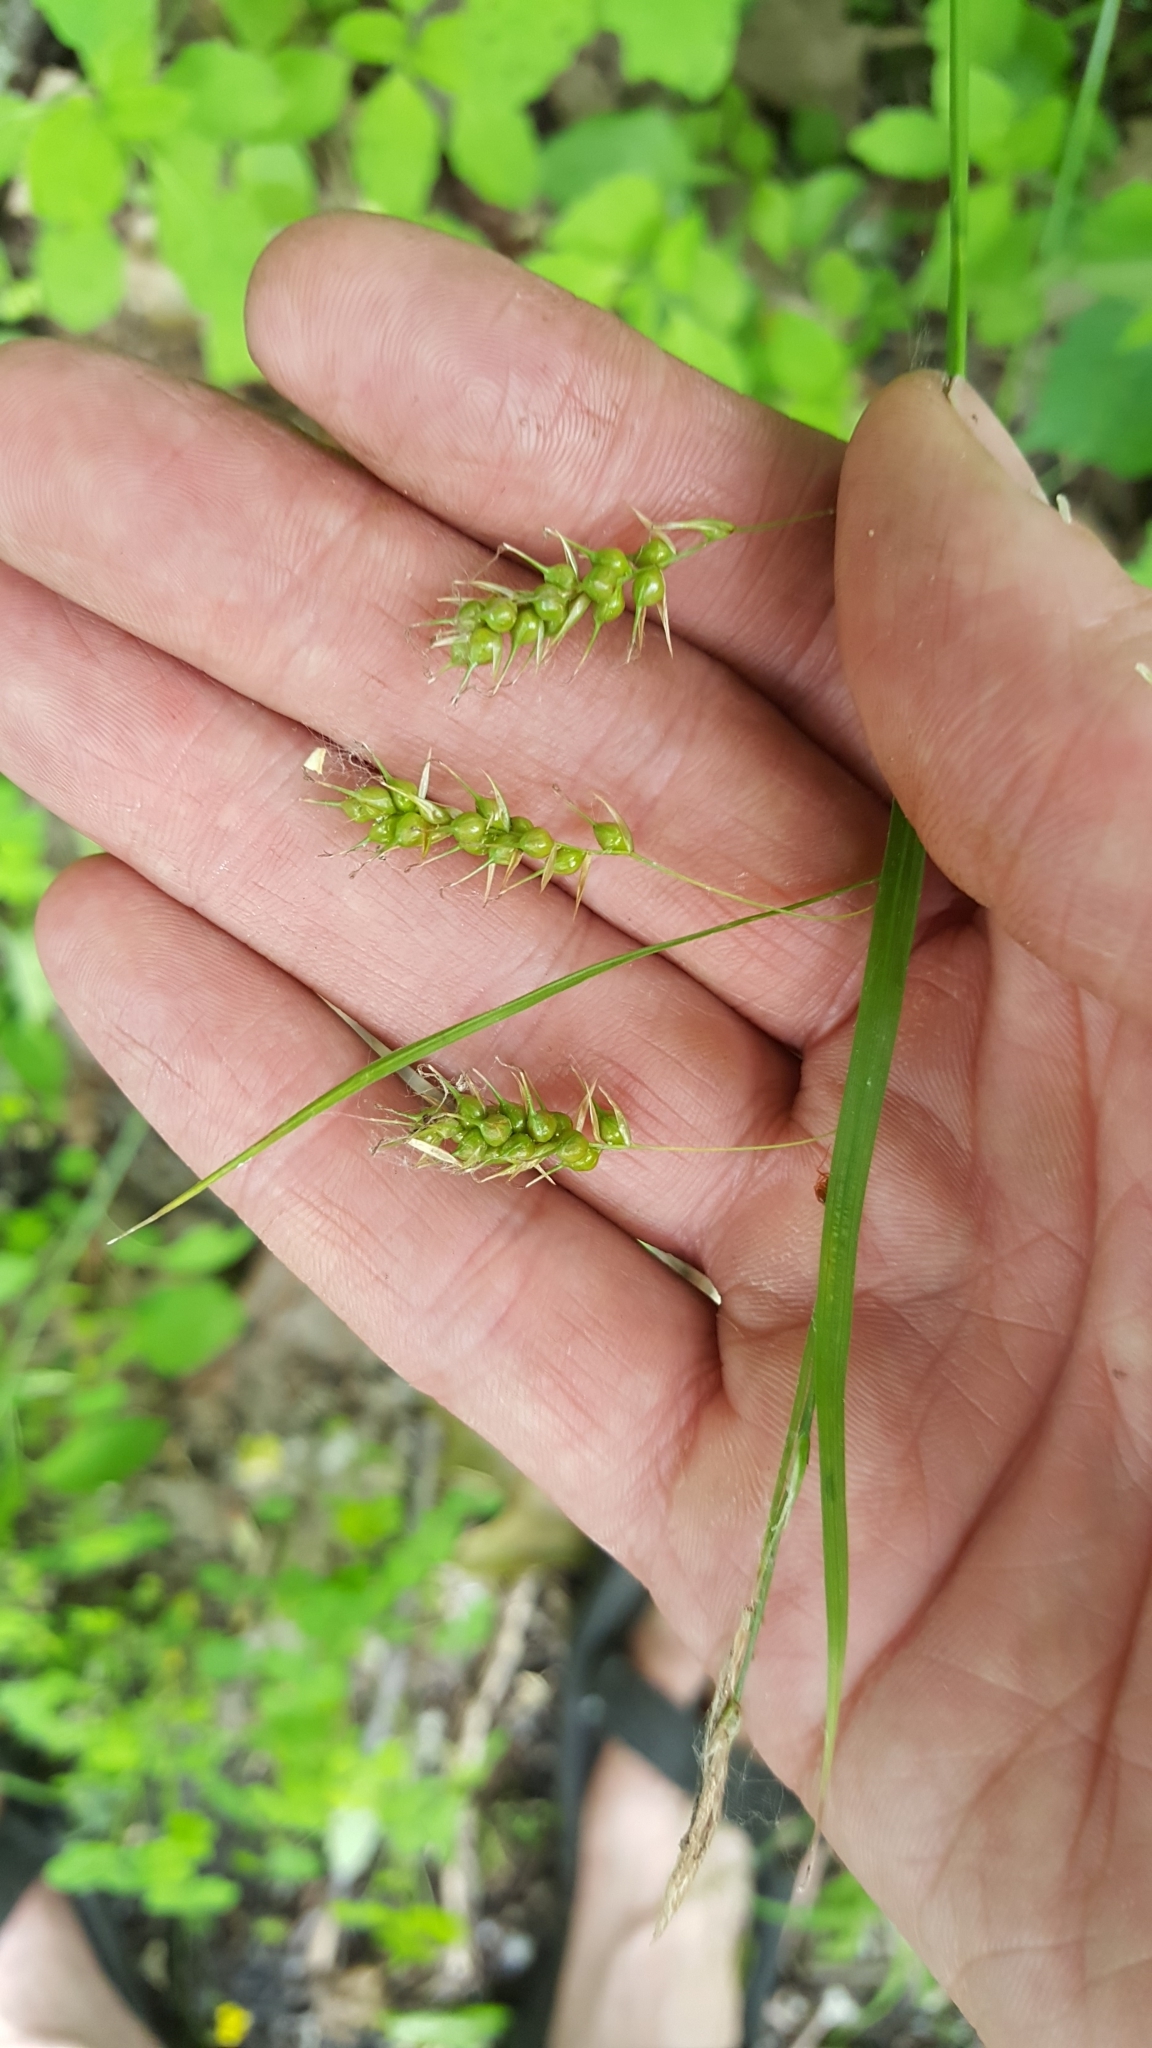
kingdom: Plantae
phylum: Tracheophyta
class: Liliopsida
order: Poales
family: Cyperaceae
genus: Carex
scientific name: Carex sprengelii
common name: Long-beaked sedge
